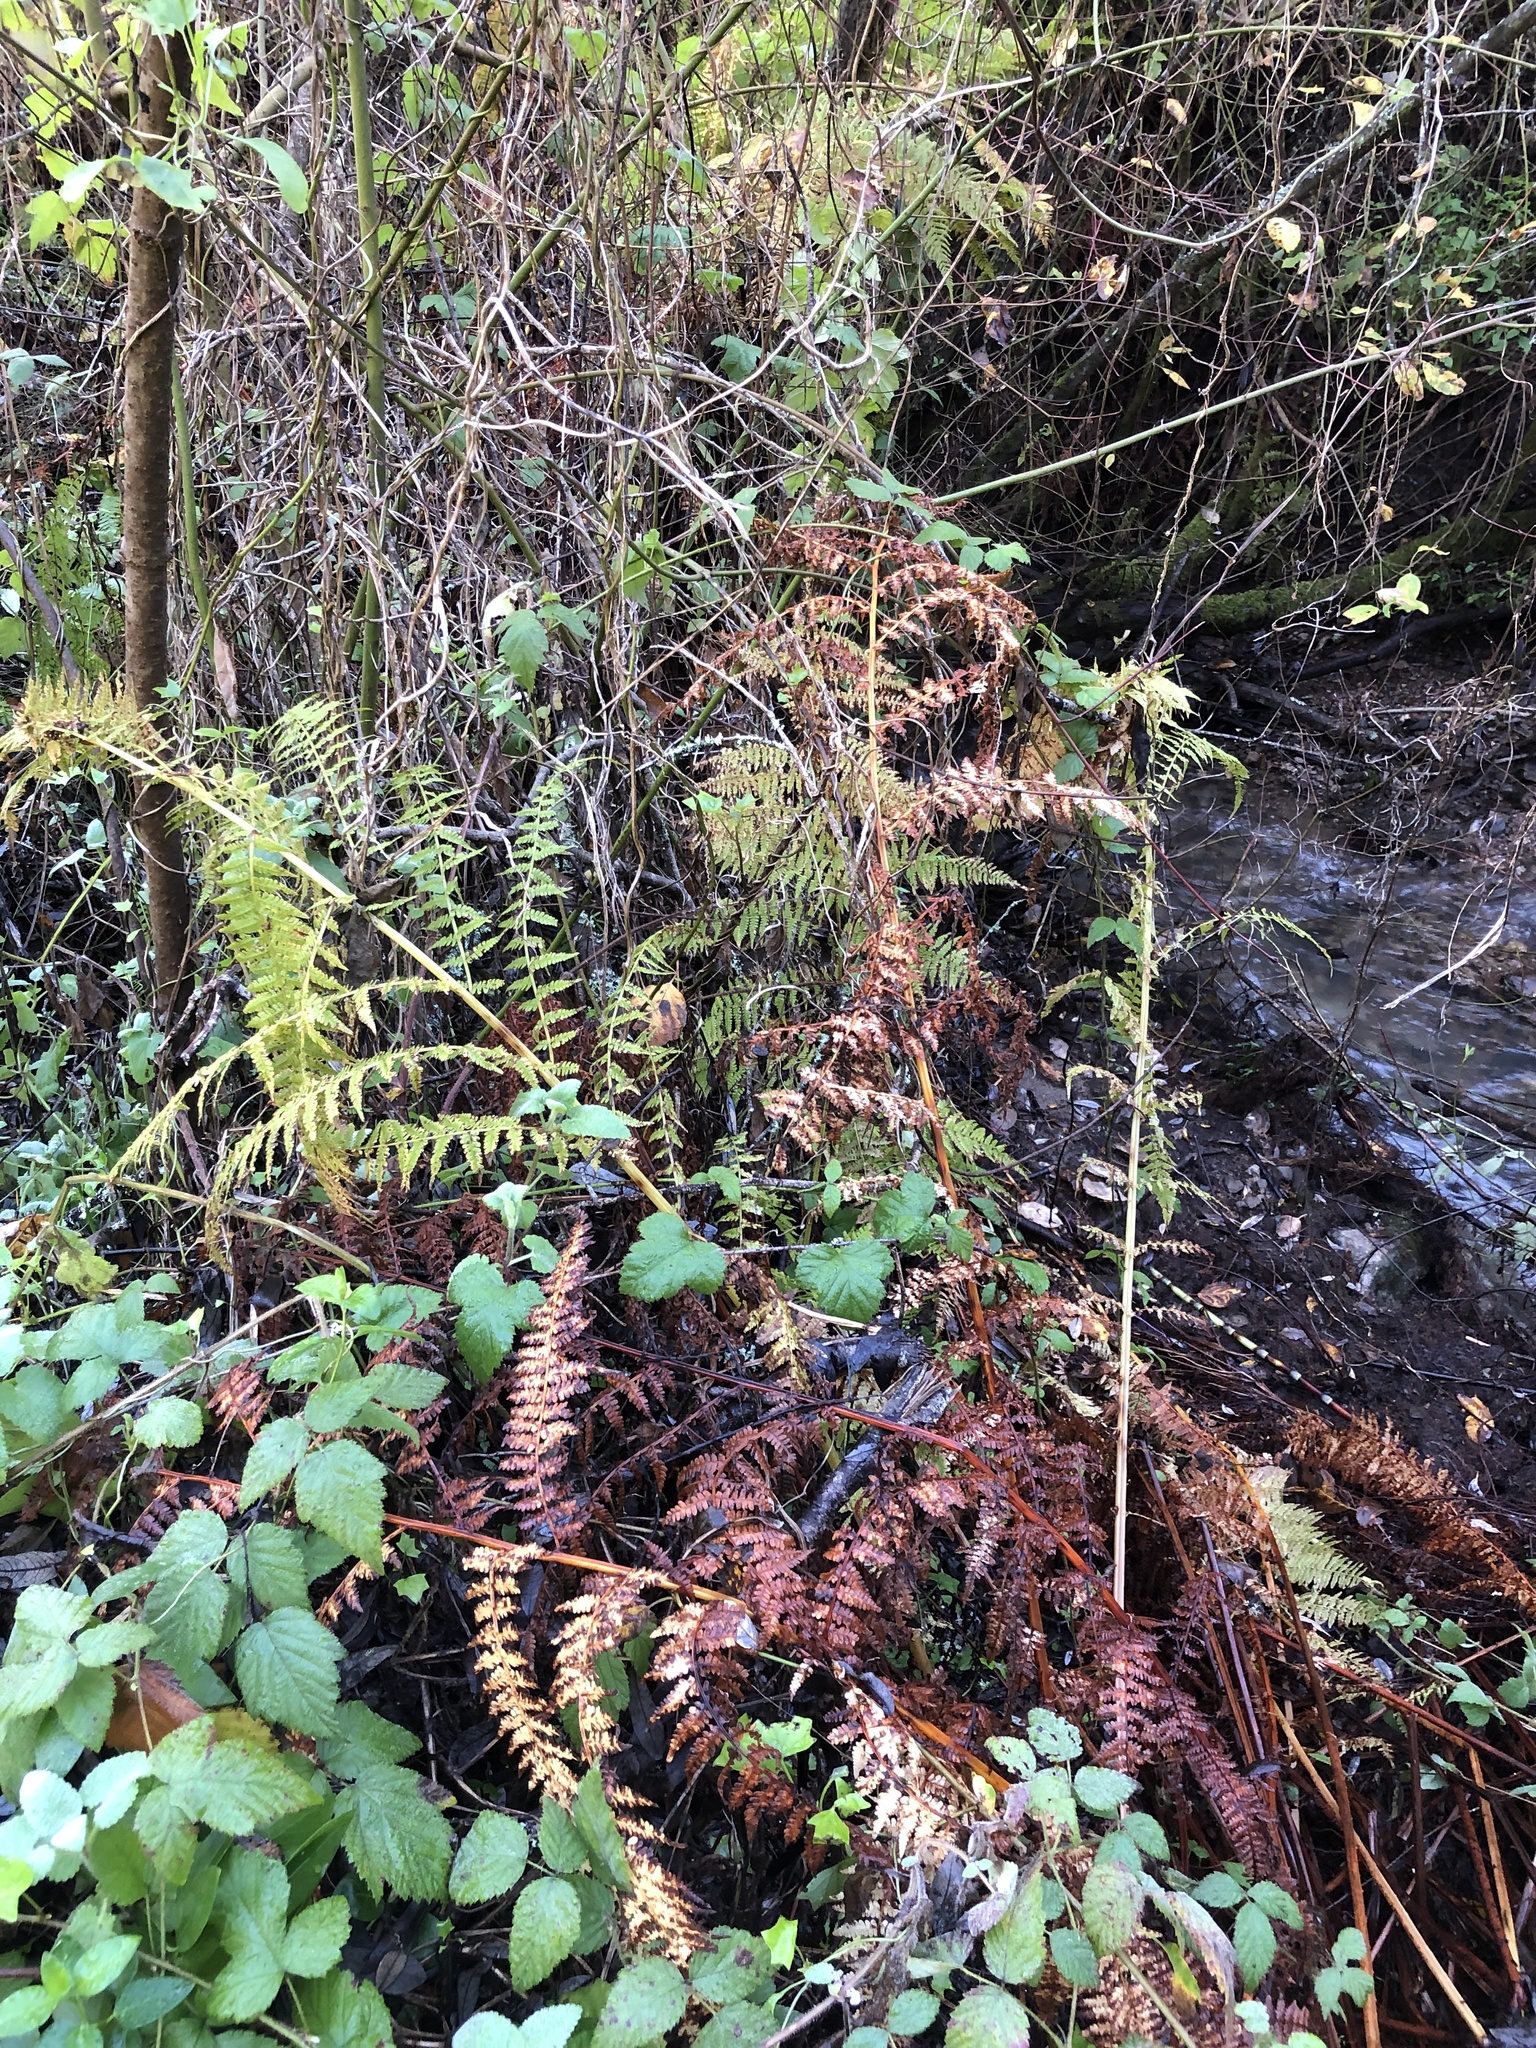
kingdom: Plantae
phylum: Tracheophyta
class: Polypodiopsida
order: Polypodiales
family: Athyriaceae
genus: Athyrium
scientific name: Athyrium cyclosorum
